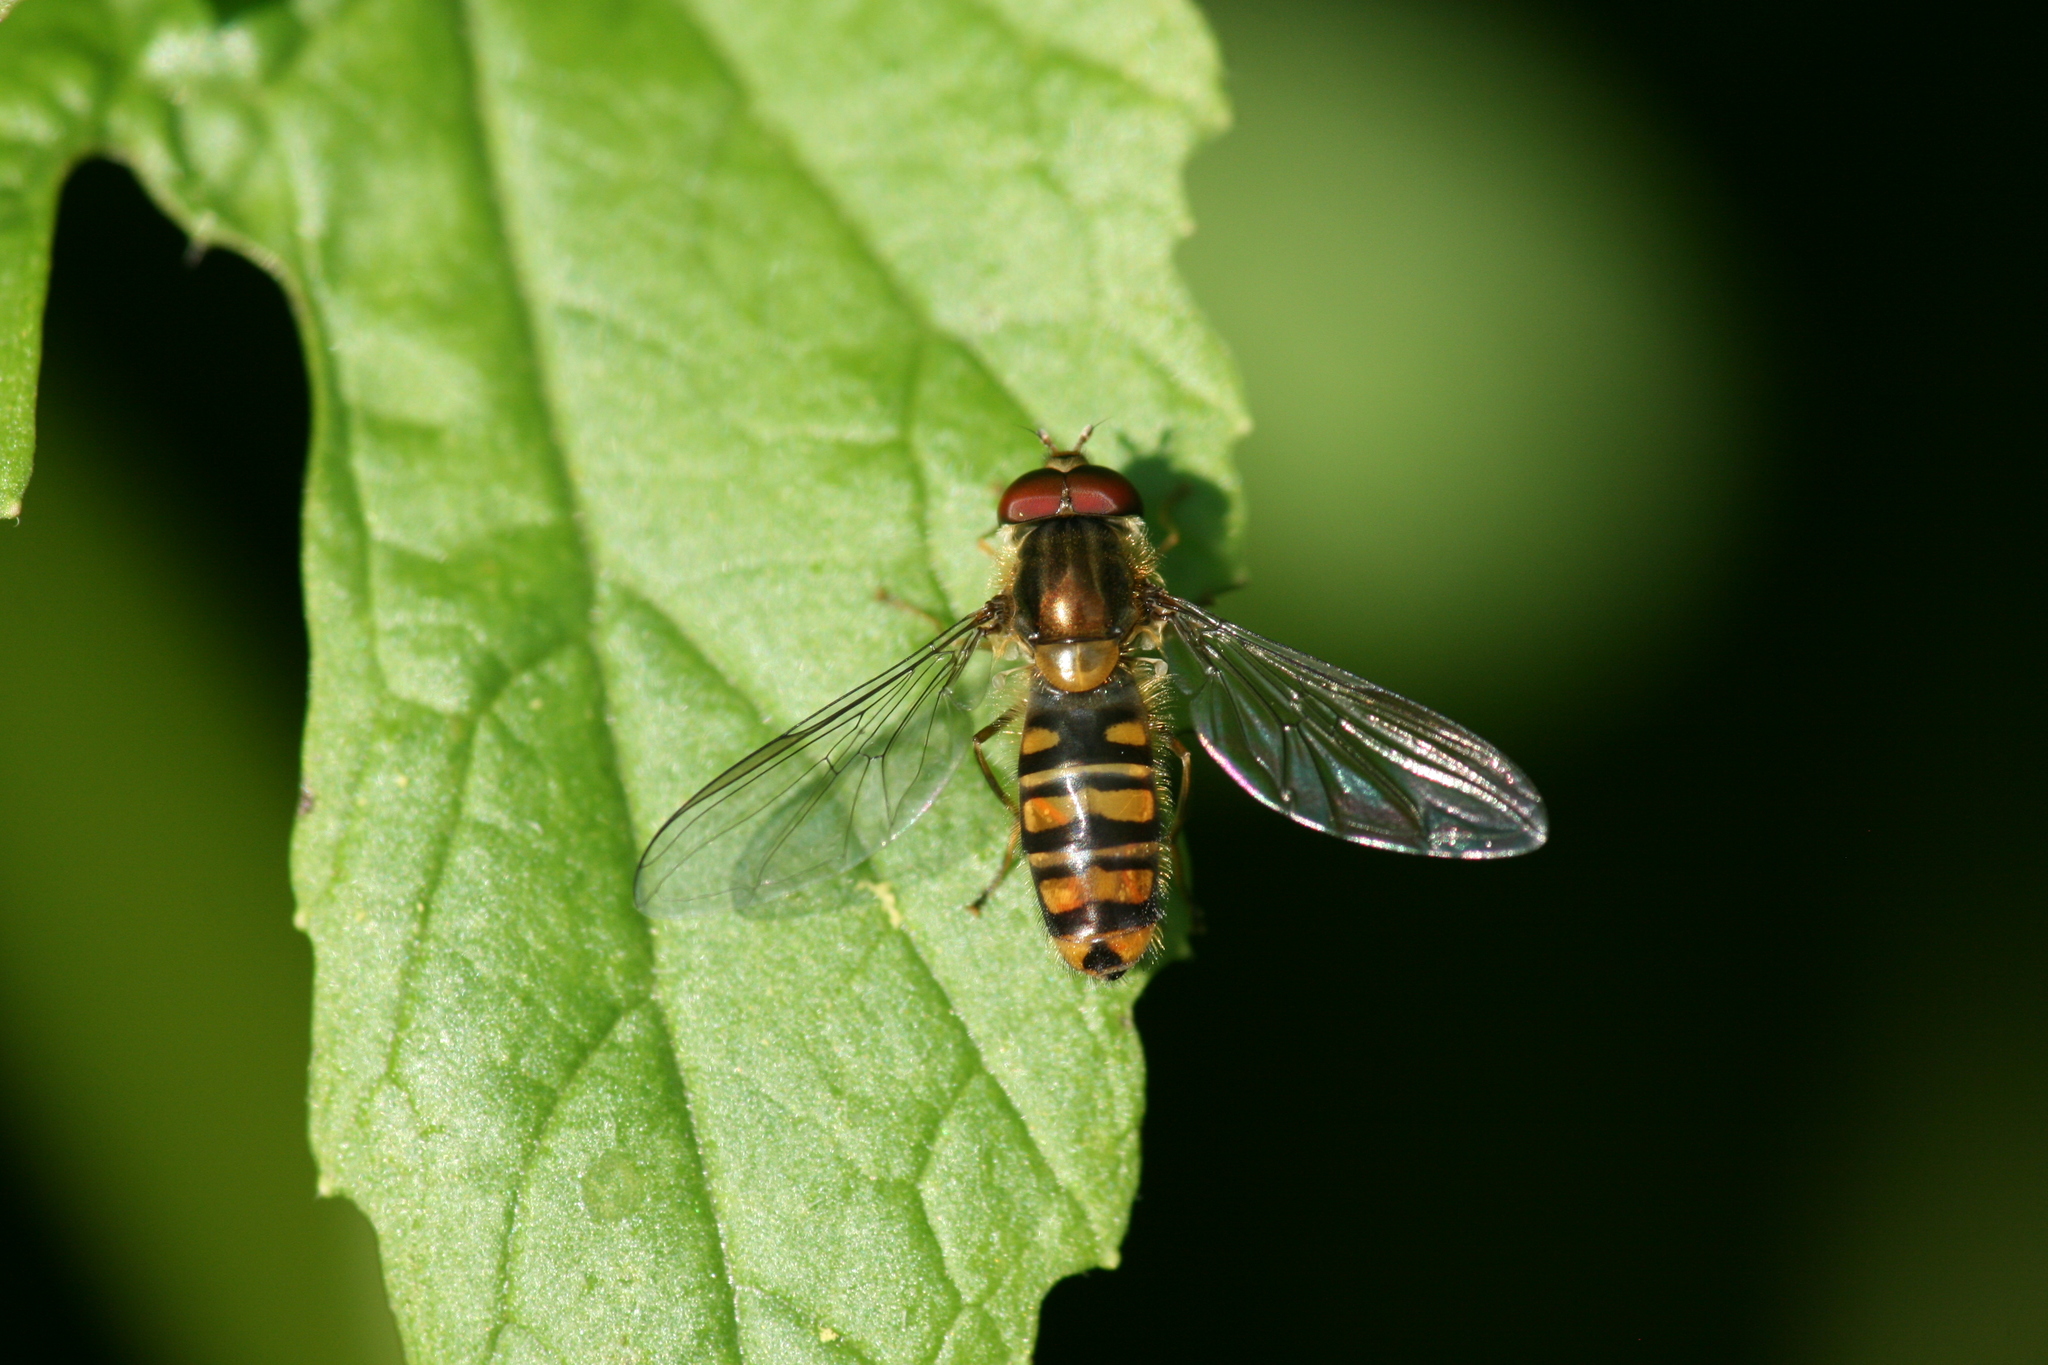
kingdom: Animalia
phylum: Arthropoda
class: Insecta
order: Diptera
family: Syrphidae
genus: Episyrphus
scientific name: Episyrphus balteatus
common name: Marmalade hoverfly
